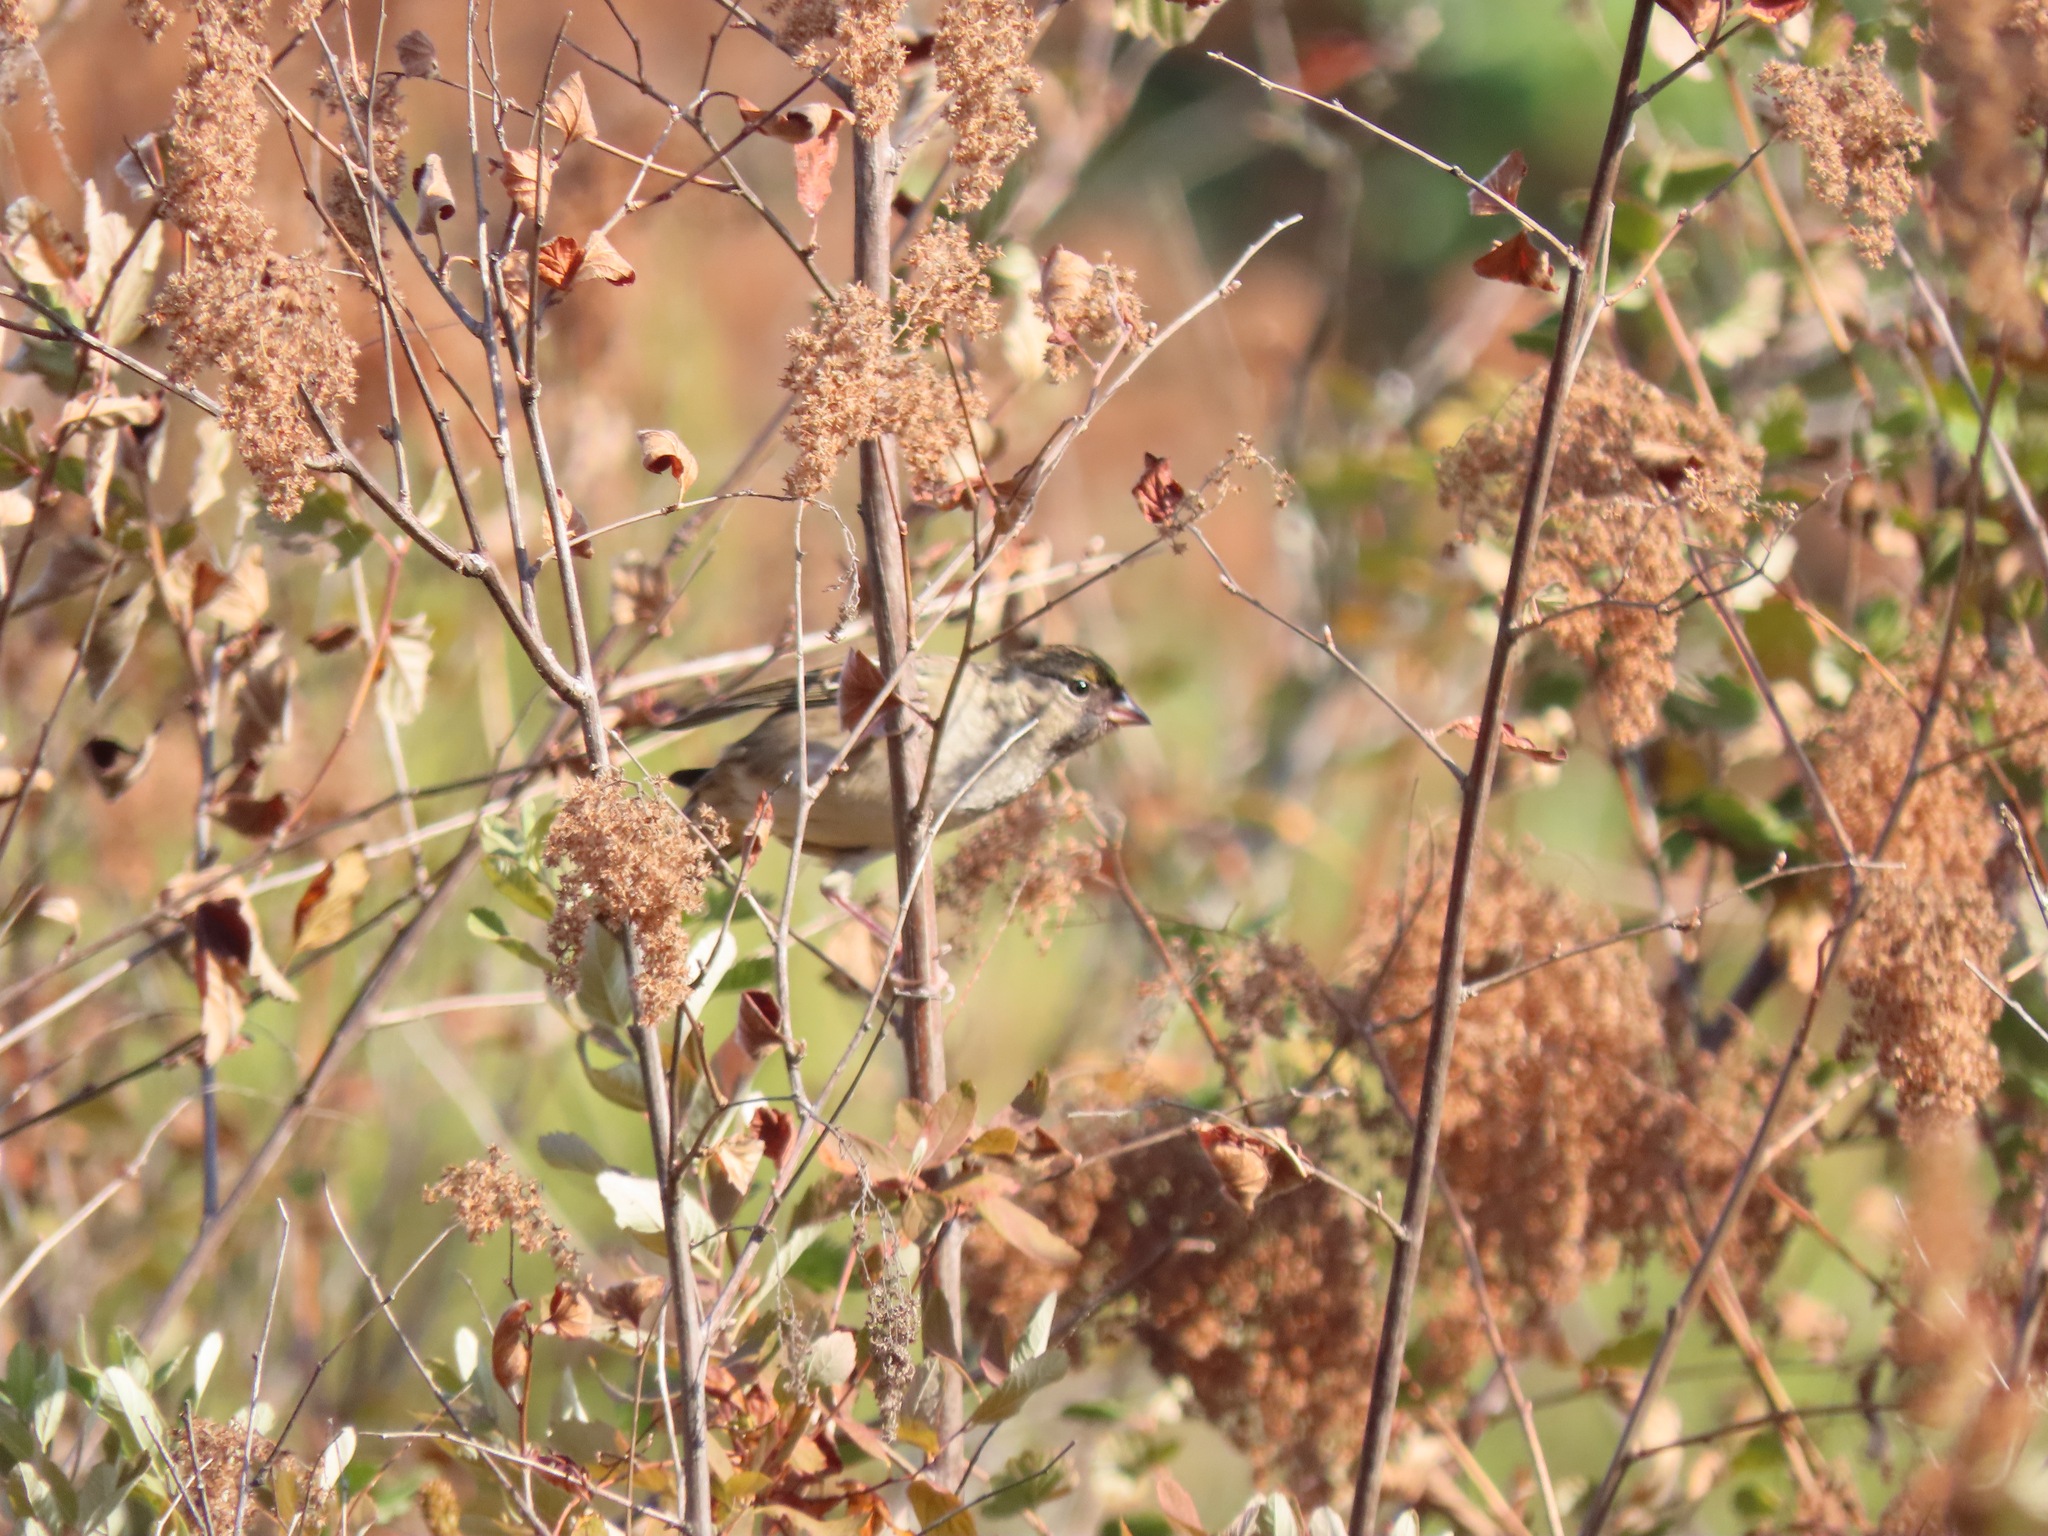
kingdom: Animalia
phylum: Chordata
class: Aves
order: Passeriformes
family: Passerellidae
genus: Zonotrichia
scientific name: Zonotrichia atricapilla
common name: Golden-crowned sparrow
